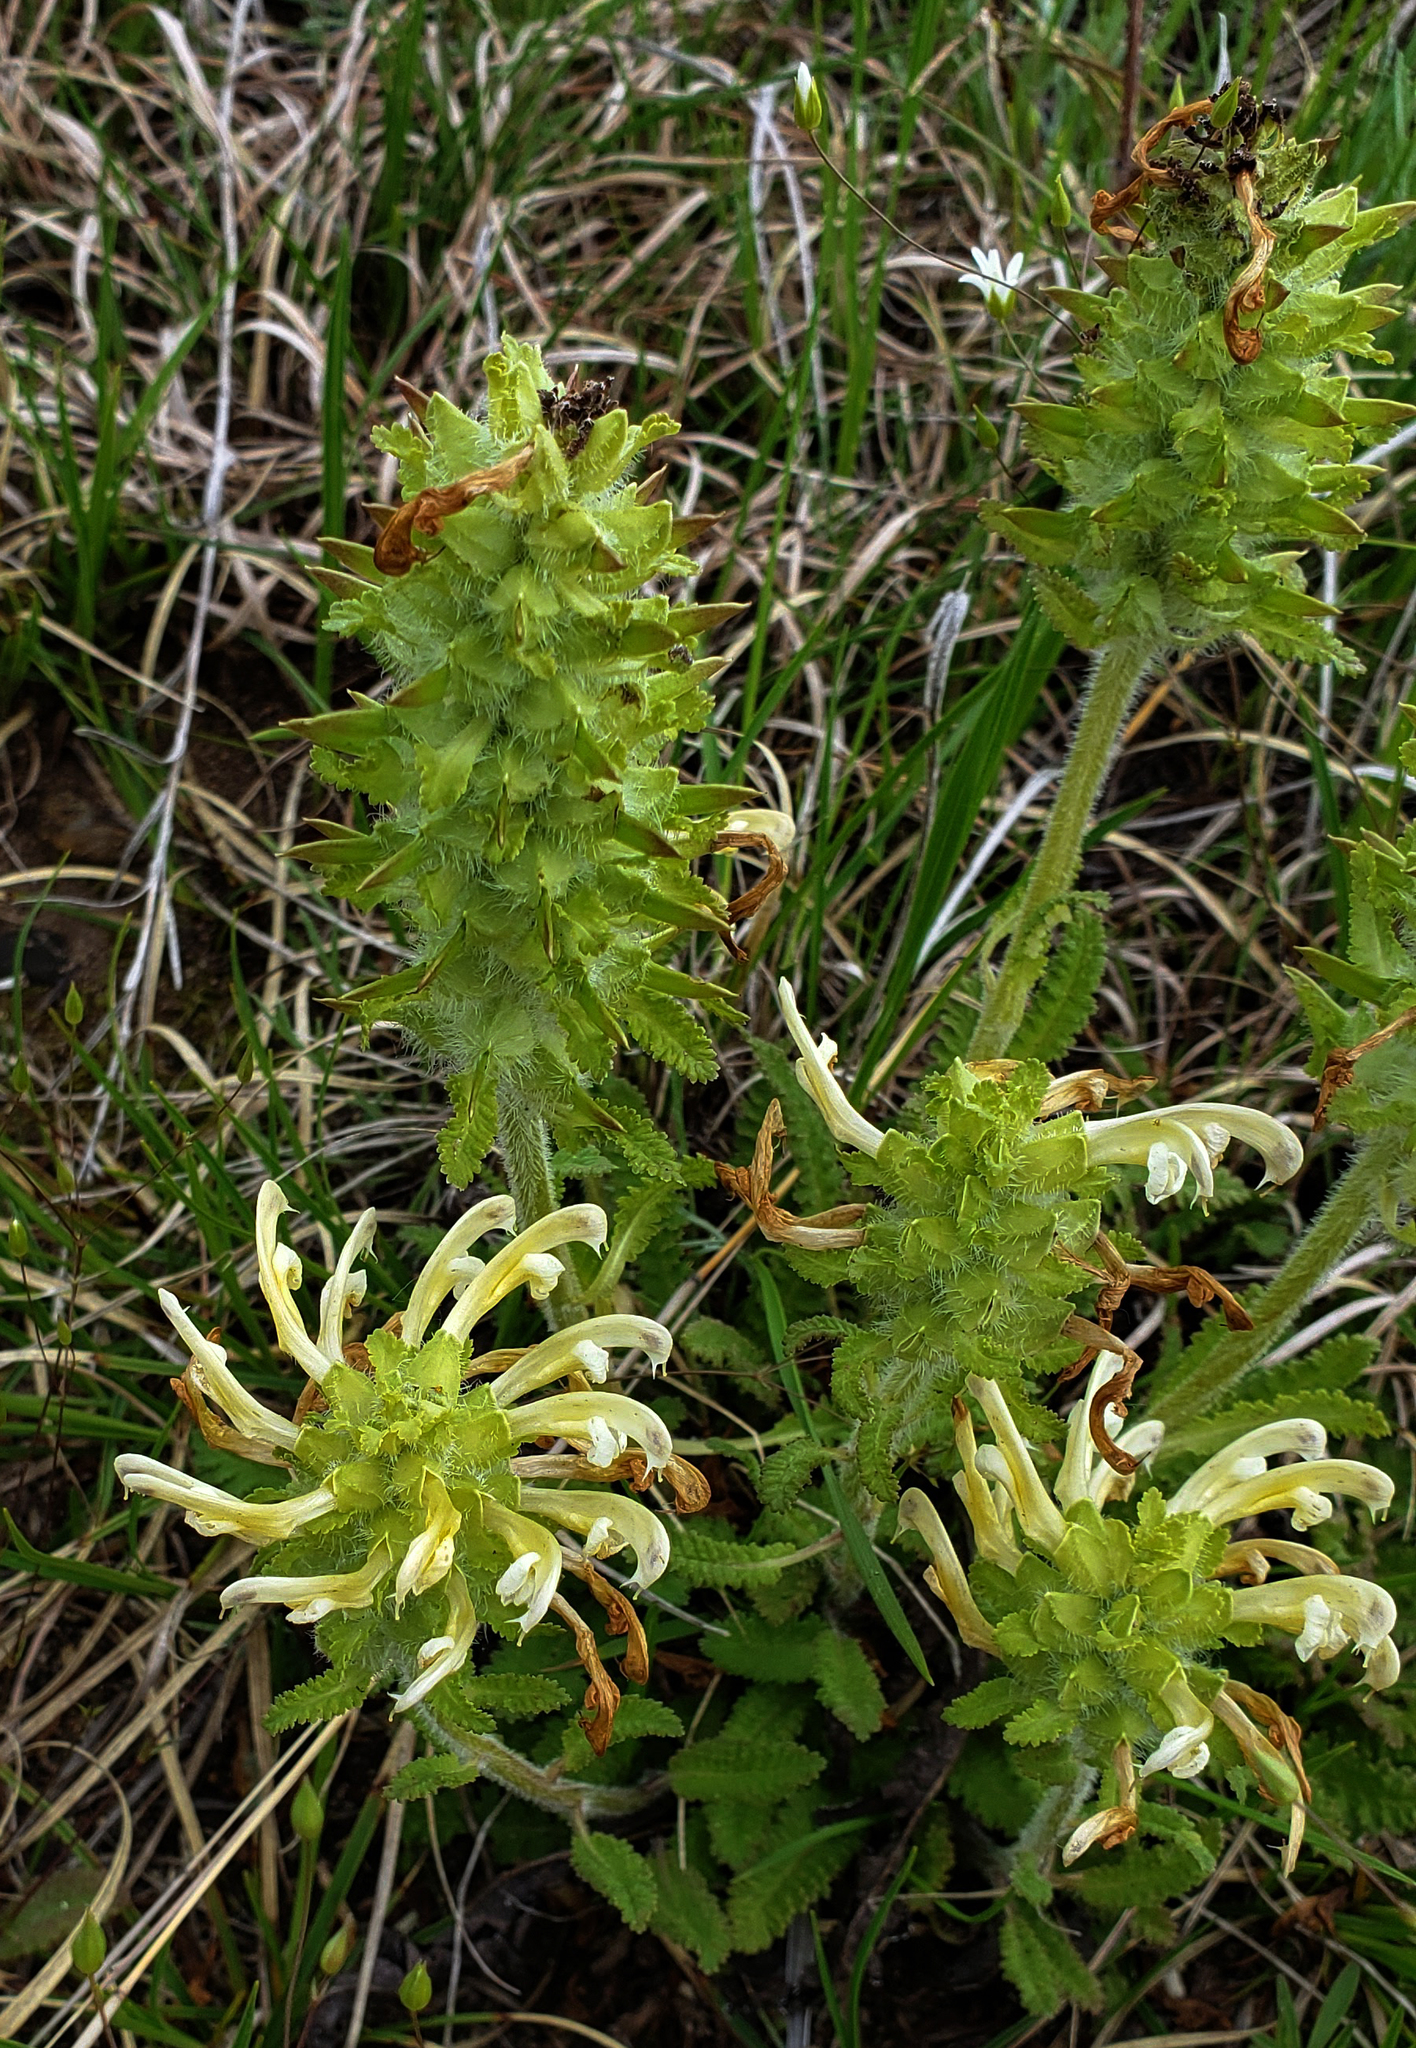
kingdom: Plantae
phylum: Tracheophyta
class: Magnoliopsida
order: Lamiales
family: Orobanchaceae
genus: Pedicularis
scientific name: Pedicularis canadensis
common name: Early lousewort
